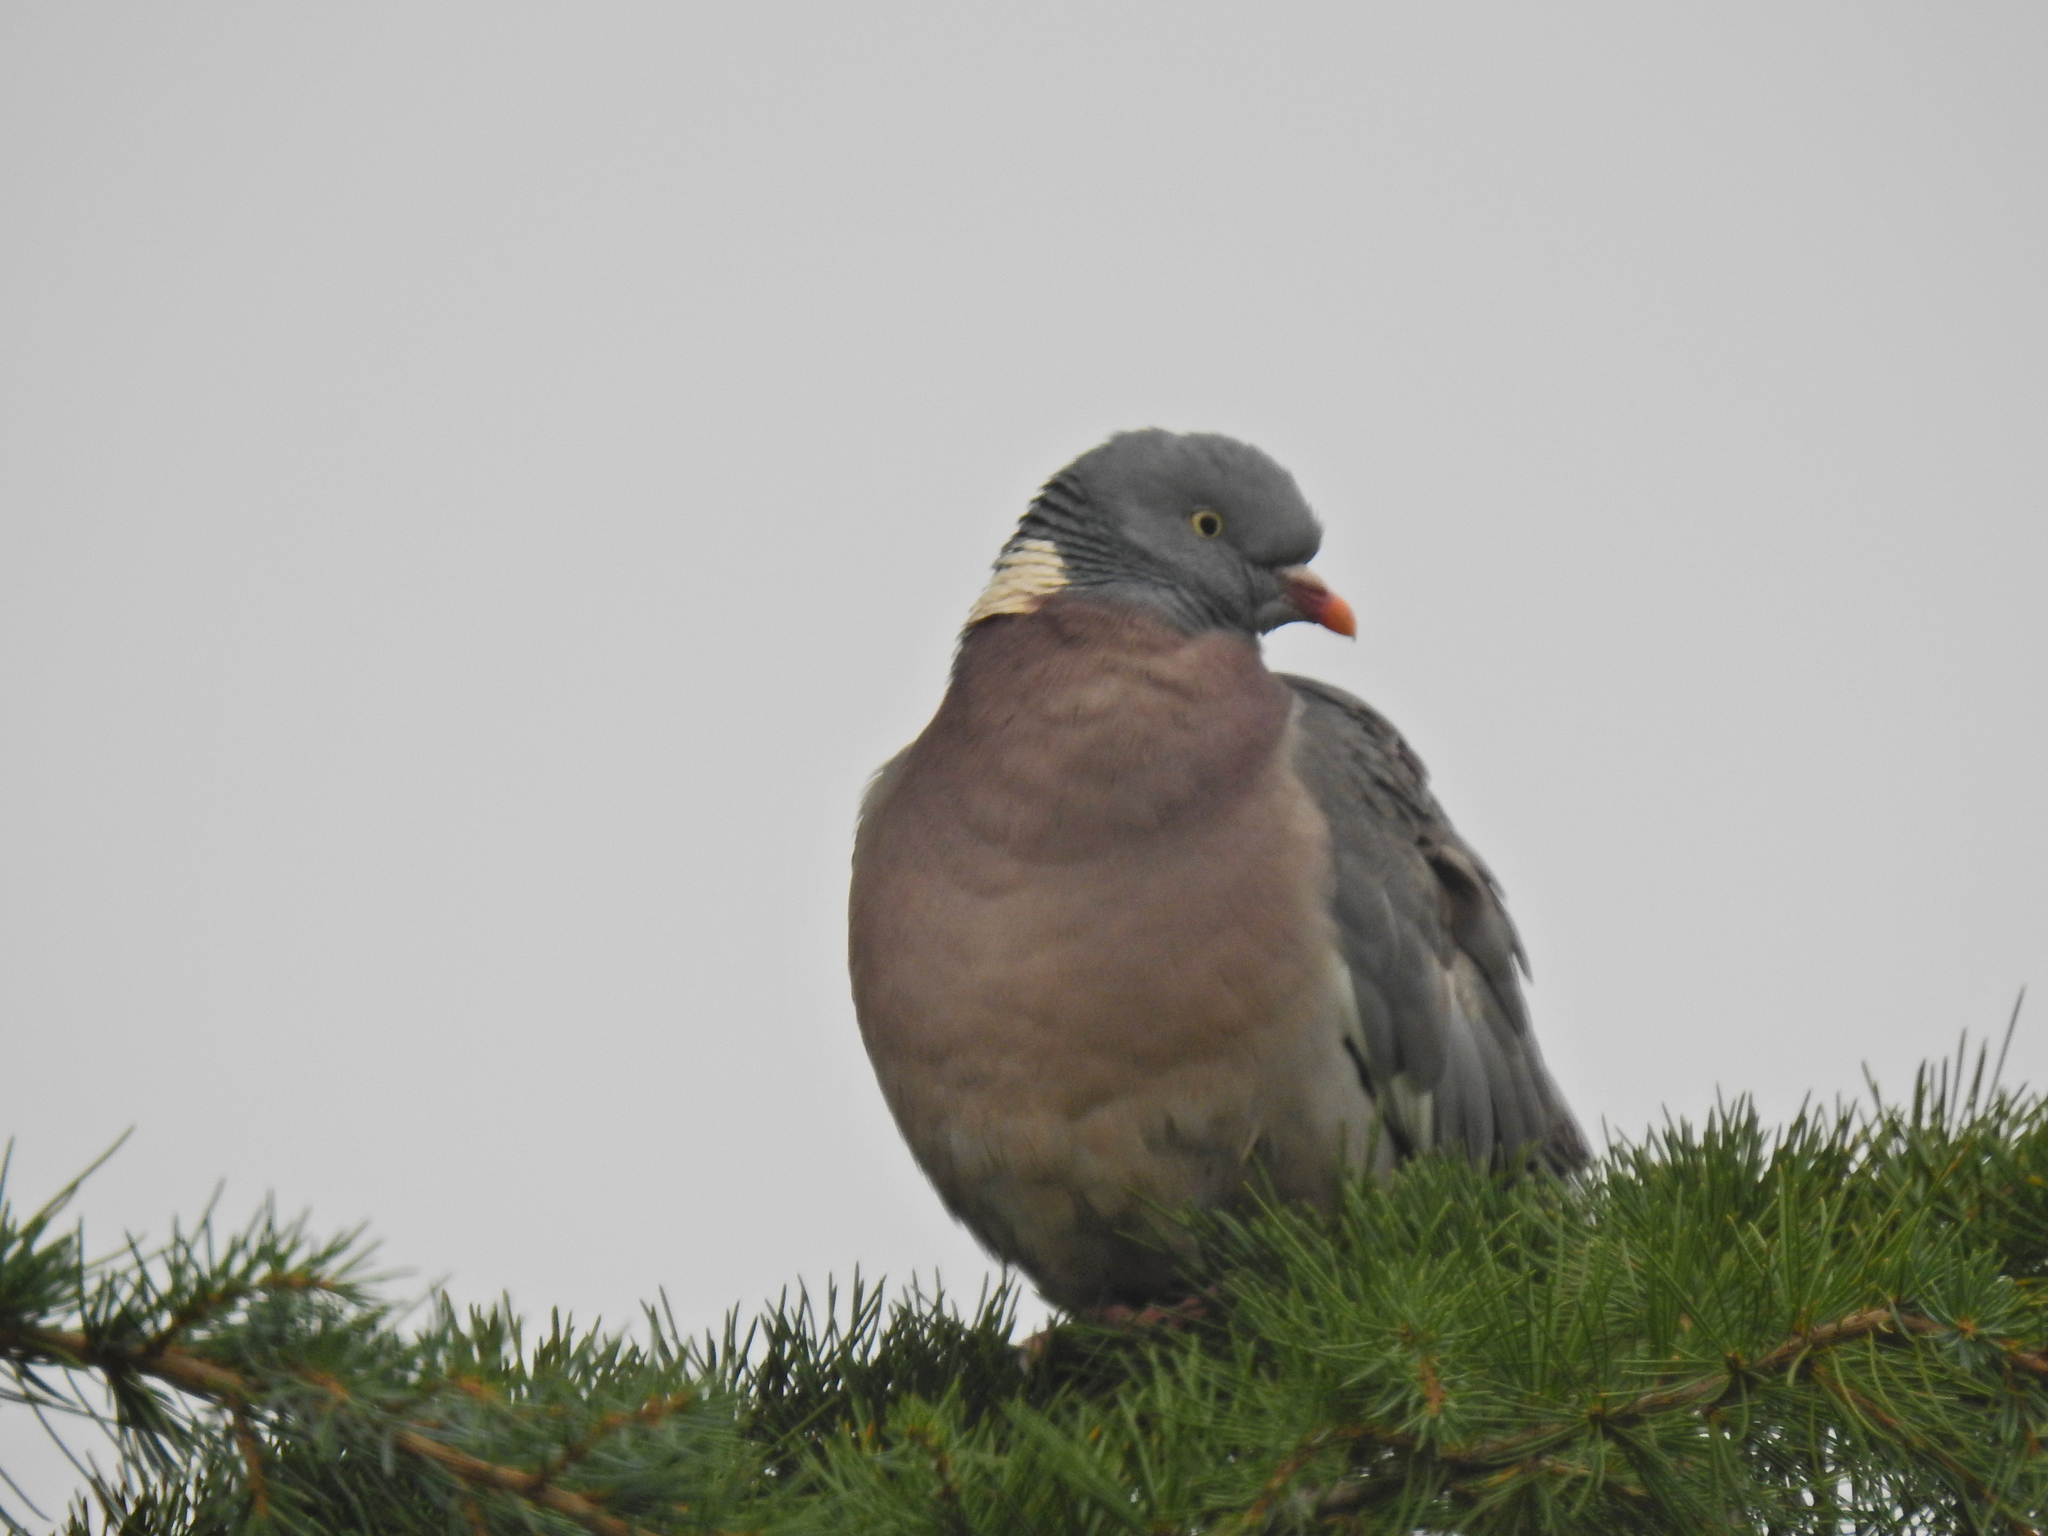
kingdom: Animalia
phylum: Chordata
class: Aves
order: Columbiformes
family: Columbidae
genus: Columba
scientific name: Columba palumbus
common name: Common wood pigeon
